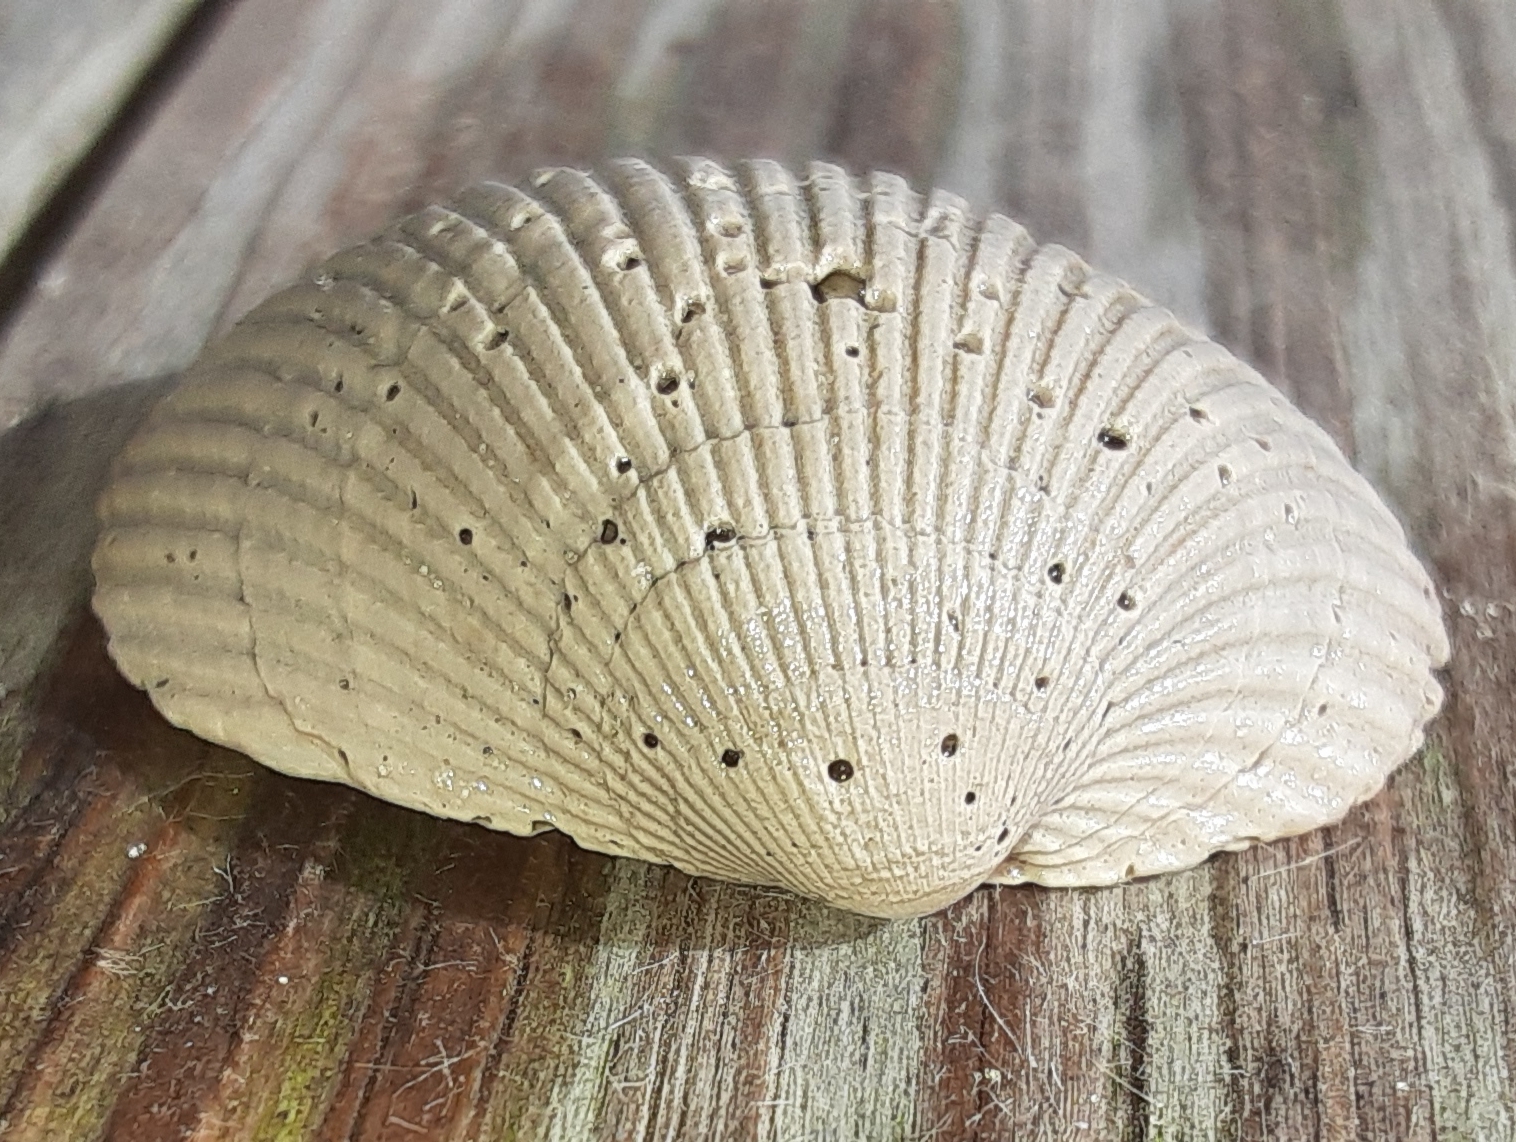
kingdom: Animalia
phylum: Mollusca
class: Bivalvia
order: Arcida
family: Arcidae
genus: Lunarca
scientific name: Lunarca ovalis
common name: Blood ark
